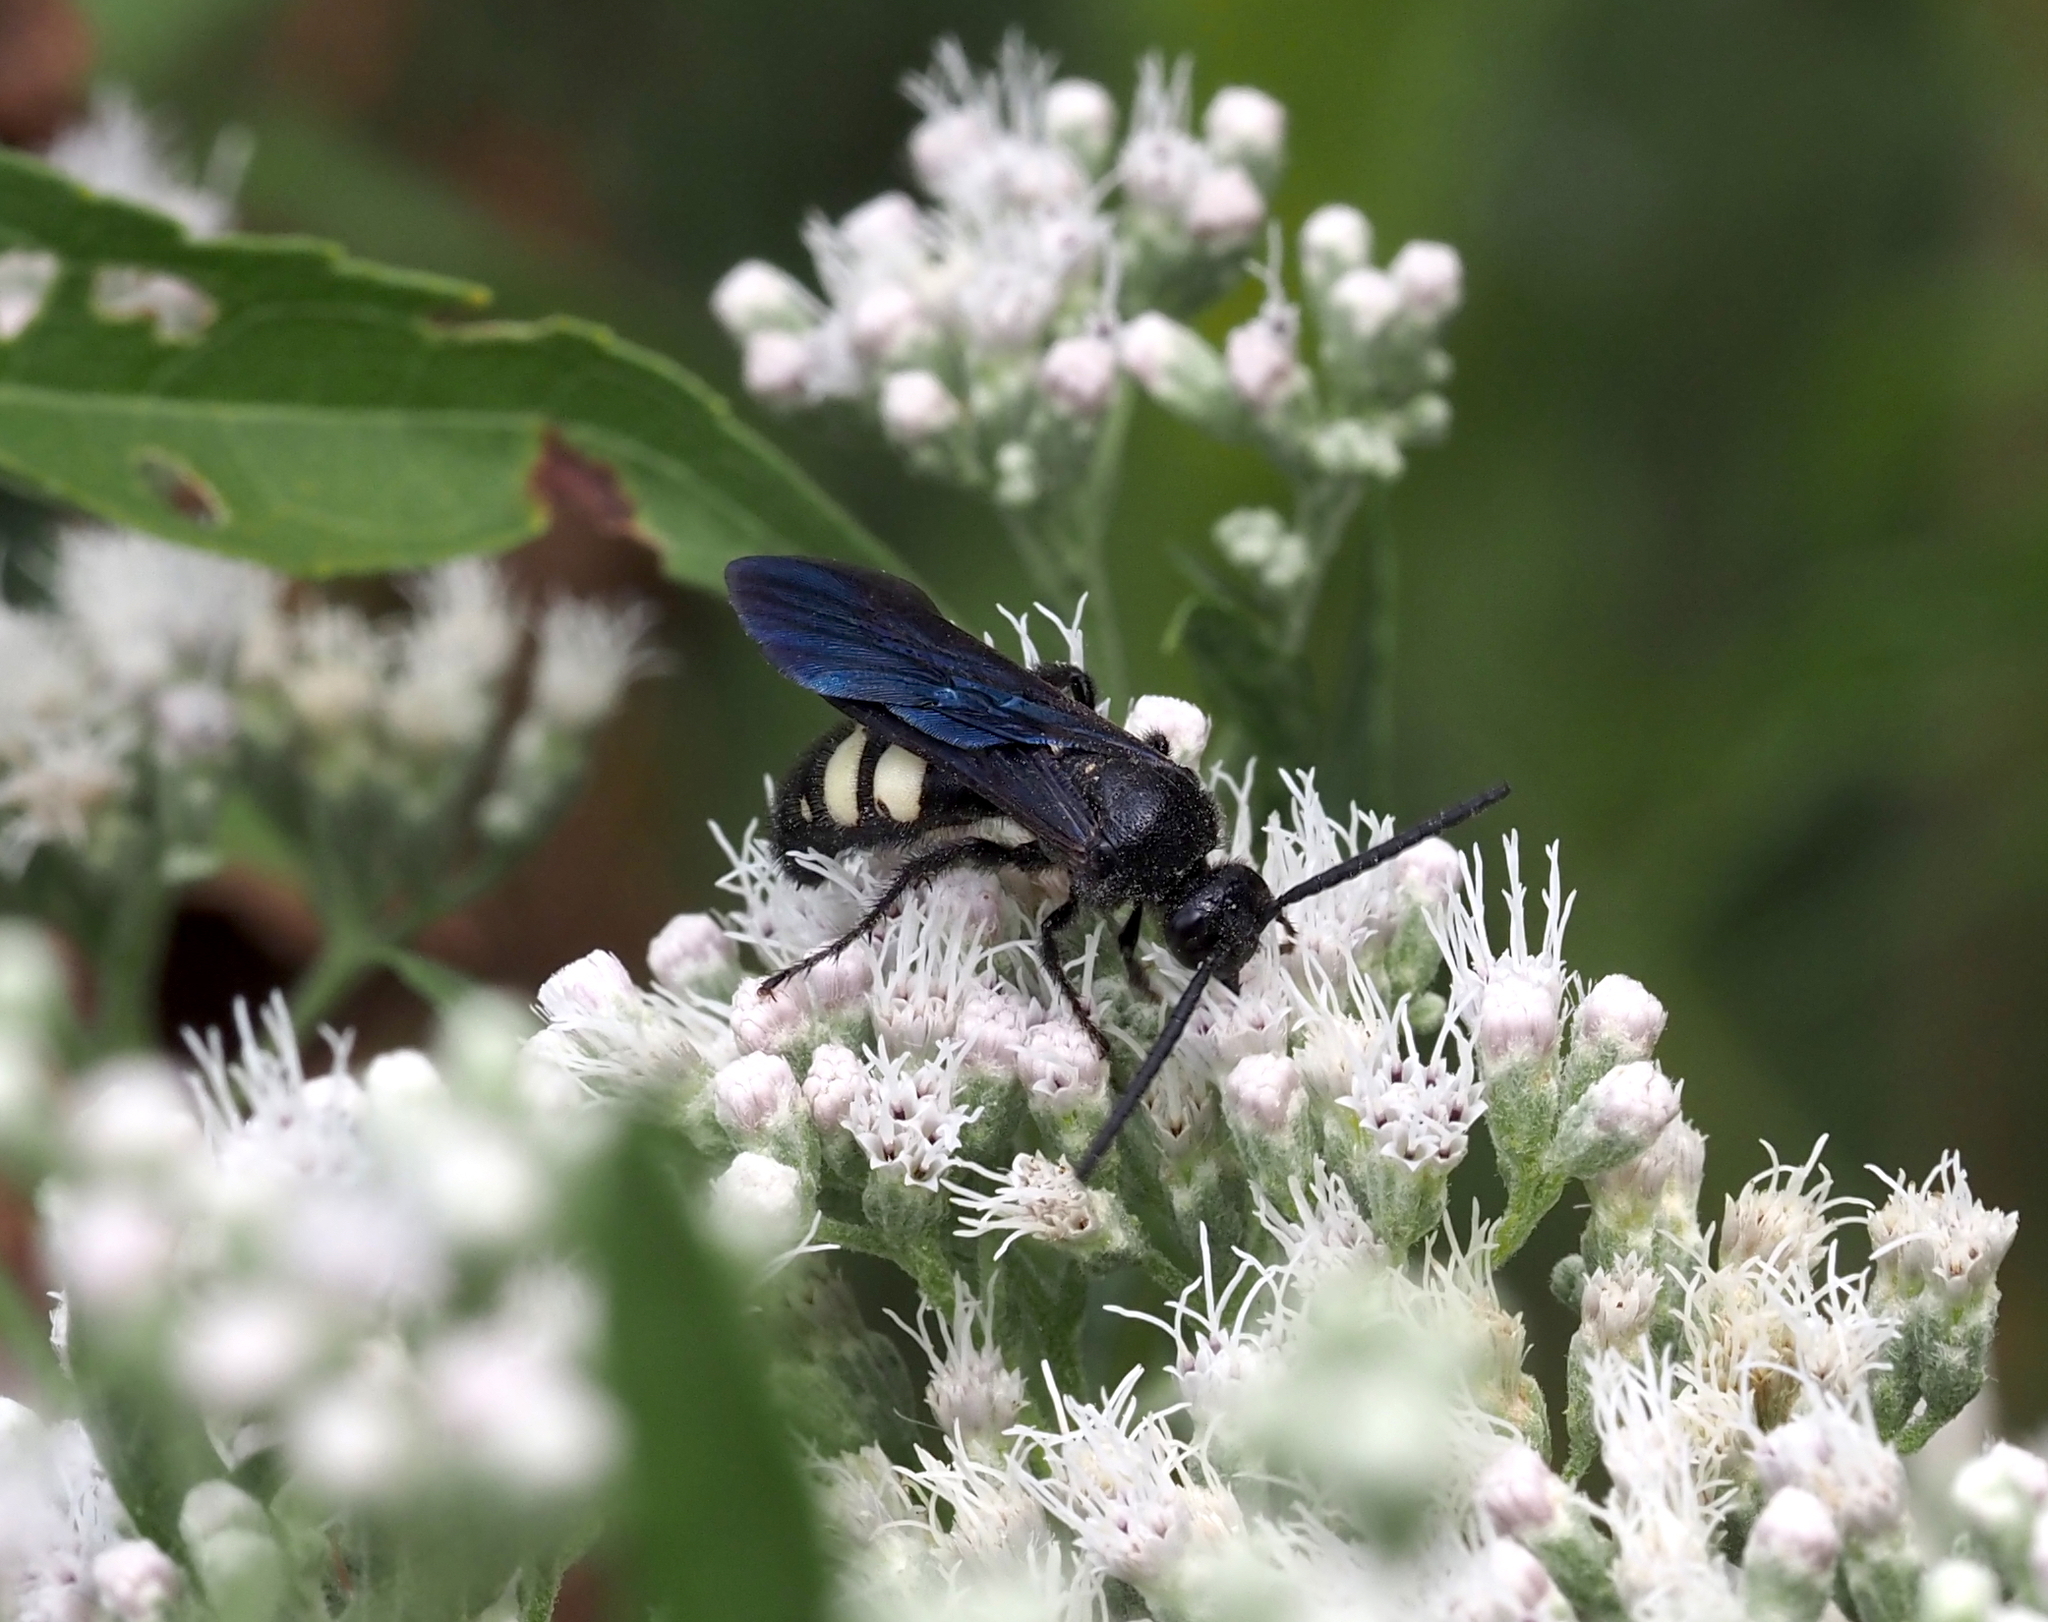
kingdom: Animalia
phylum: Arthropoda
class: Insecta
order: Hymenoptera
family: Scoliidae
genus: Scolia
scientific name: Scolia bicincta
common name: Double-banded scoliid wasp
